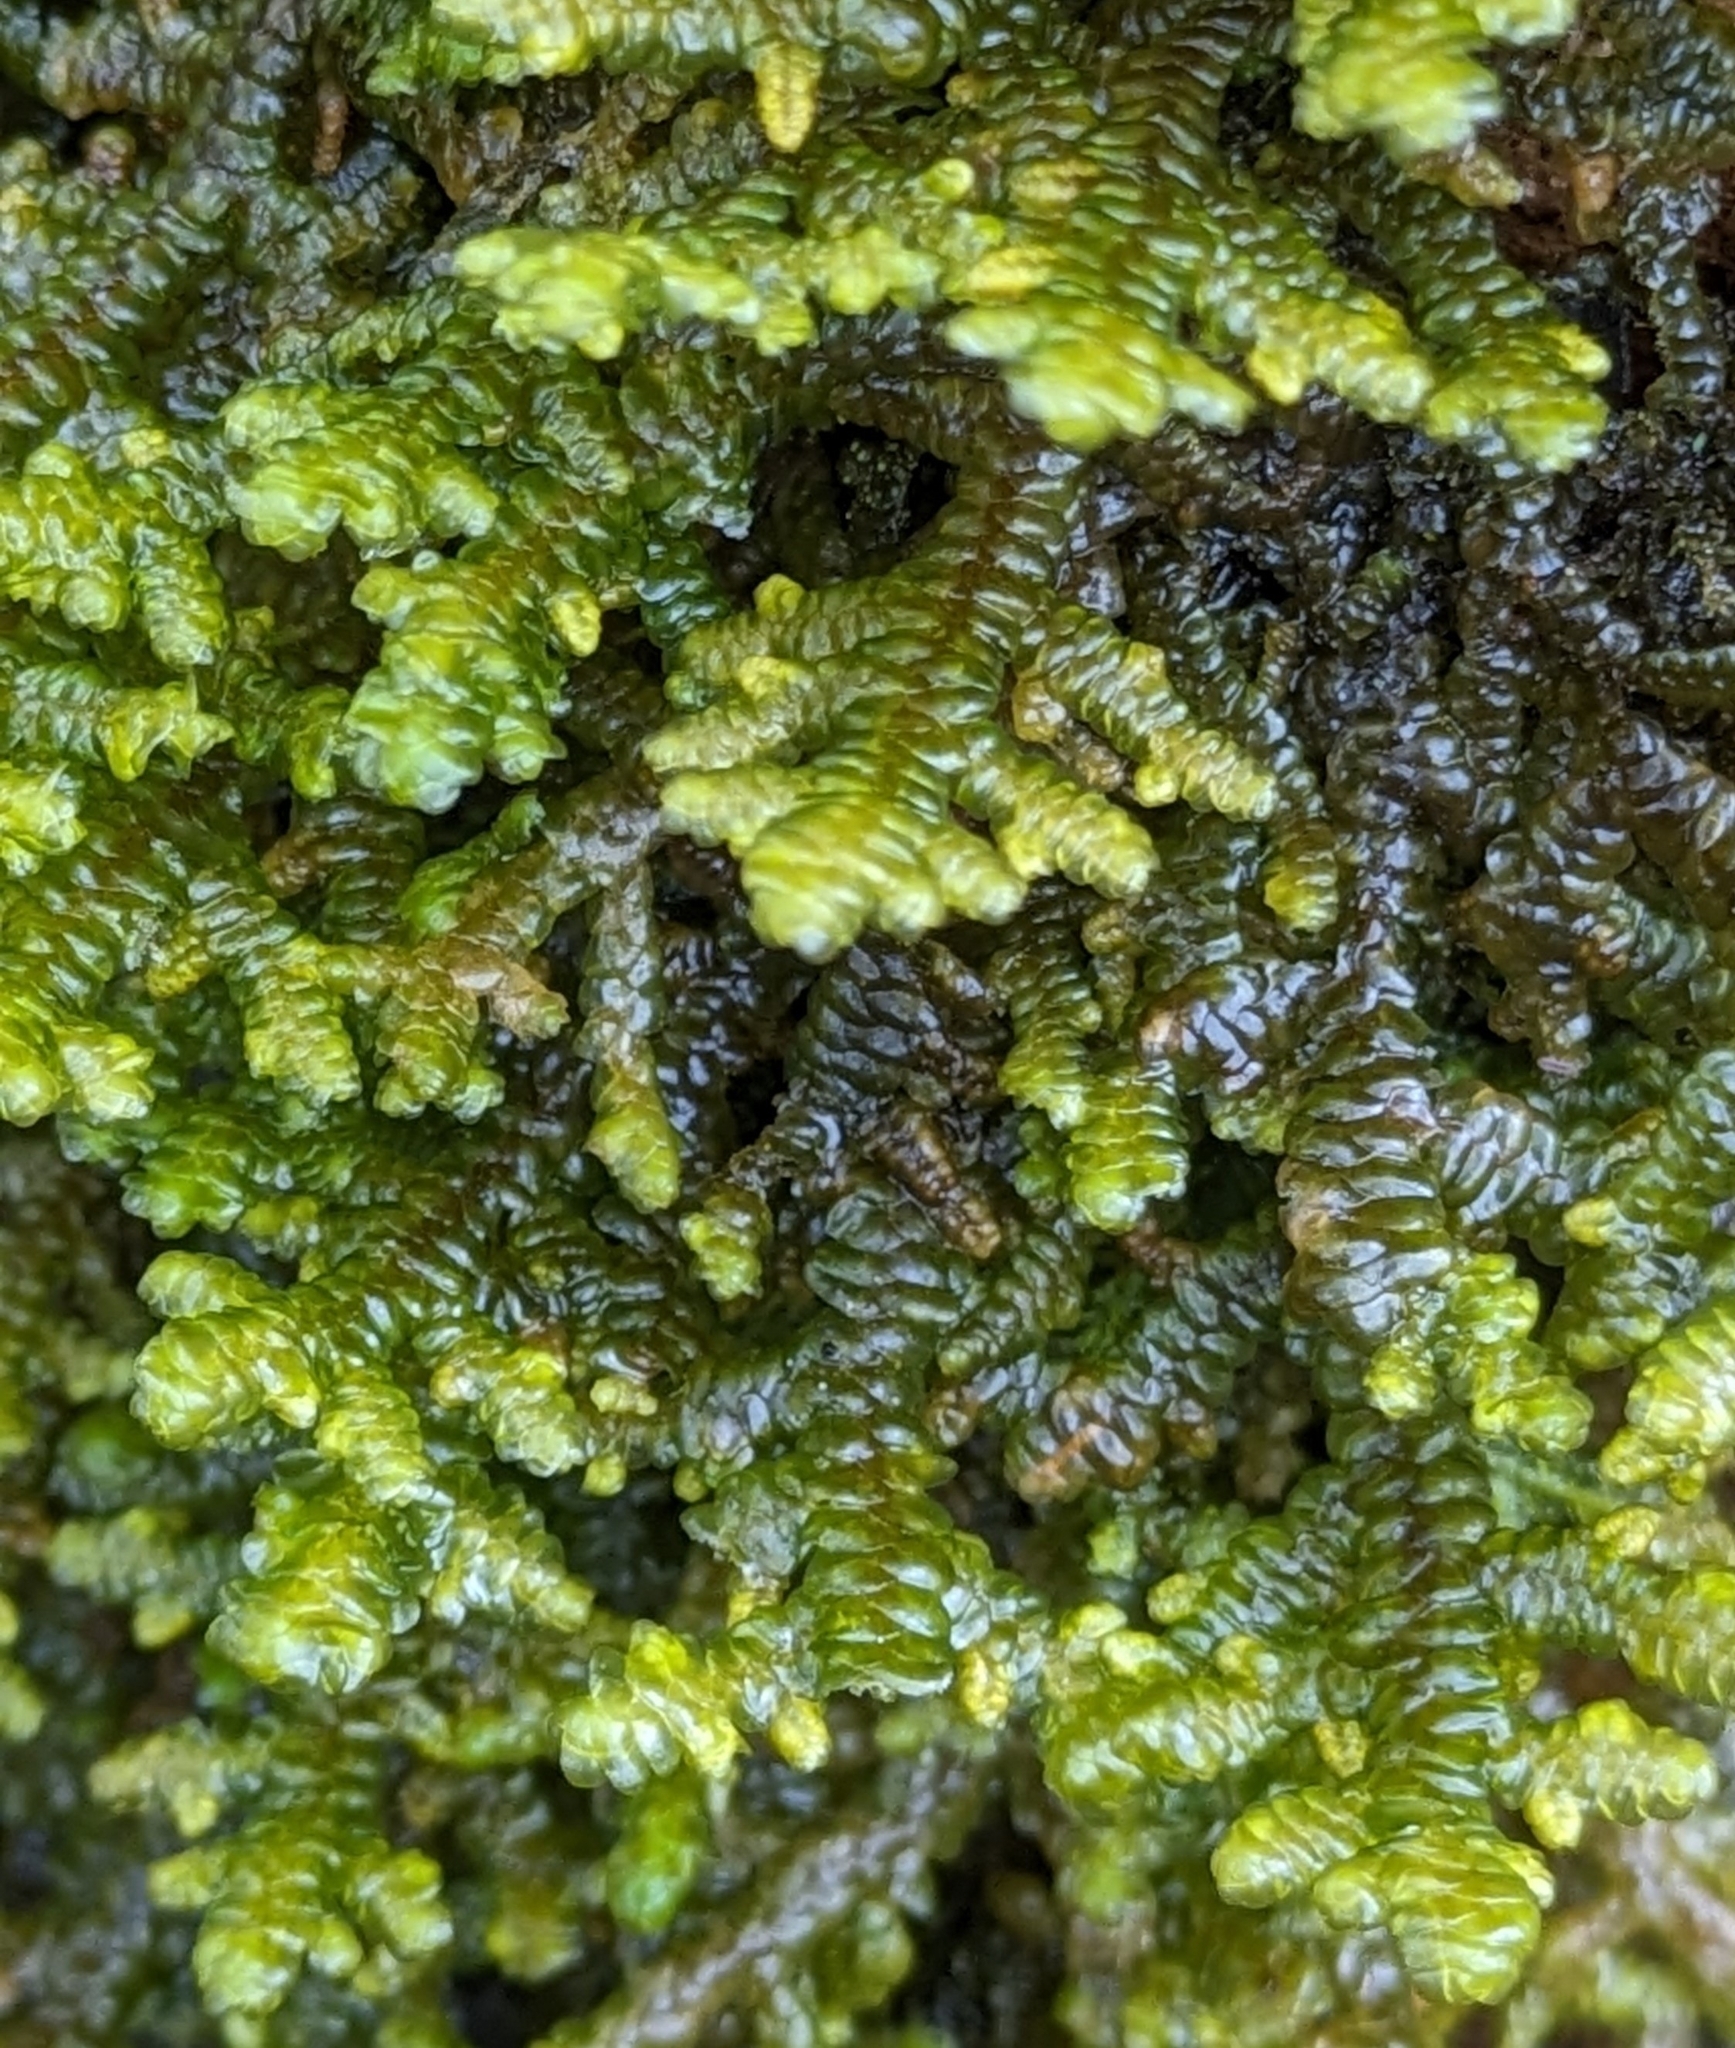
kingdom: Plantae
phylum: Marchantiophyta
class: Jungermanniopsida
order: Porellales
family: Porellaceae
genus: Porella
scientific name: Porella navicularis
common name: Tree ruffle liverwort
